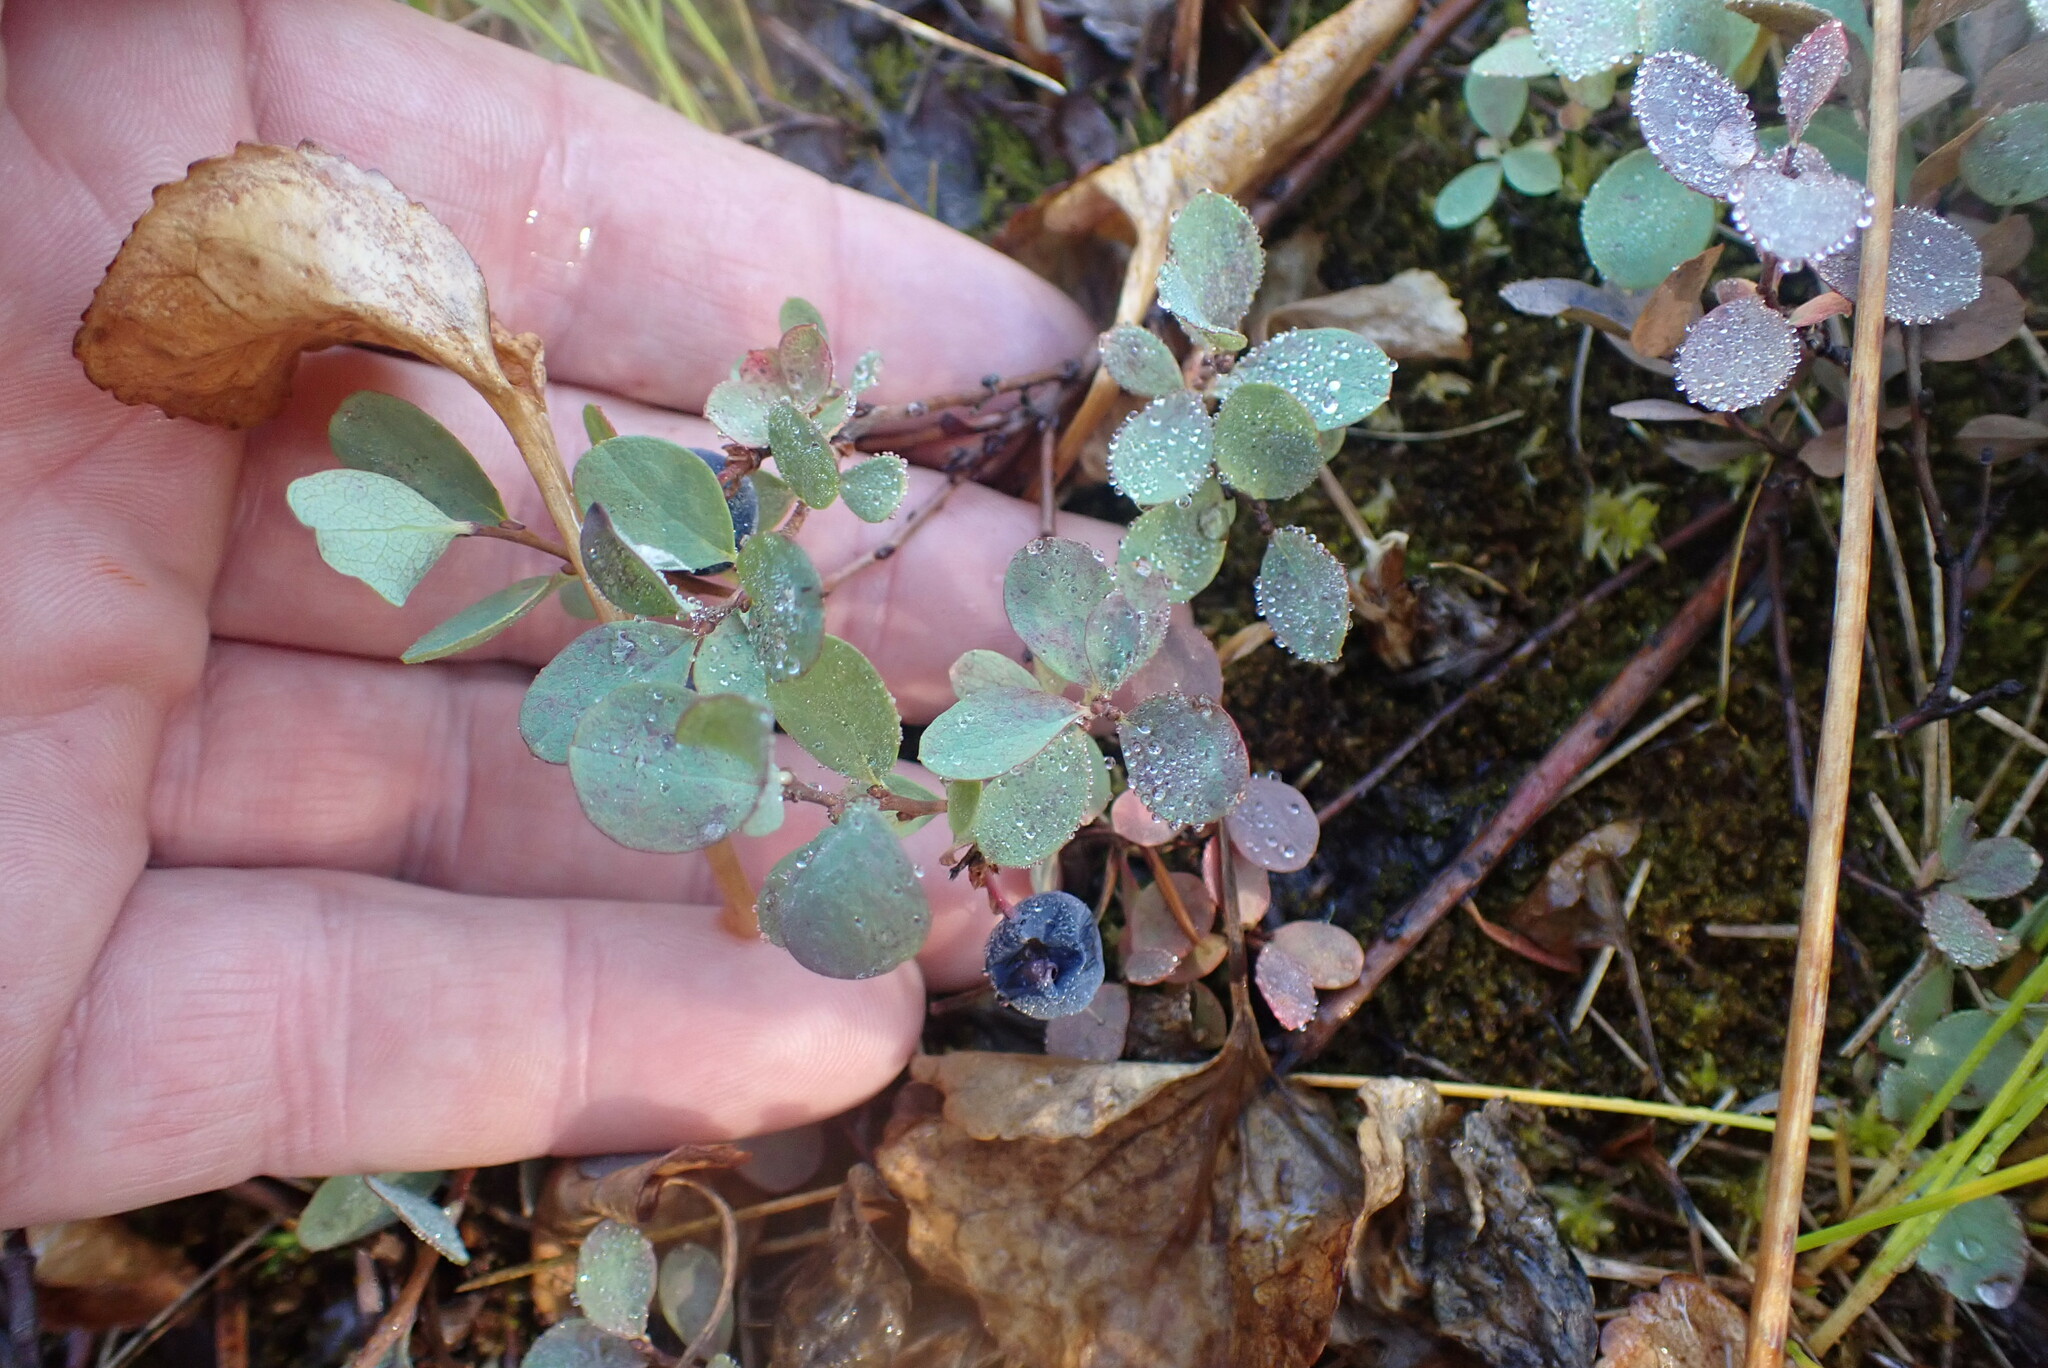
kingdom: Plantae
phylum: Tracheophyta
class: Magnoliopsida
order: Ericales
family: Ericaceae
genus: Vaccinium
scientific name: Vaccinium uliginosum
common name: Bog bilberry
